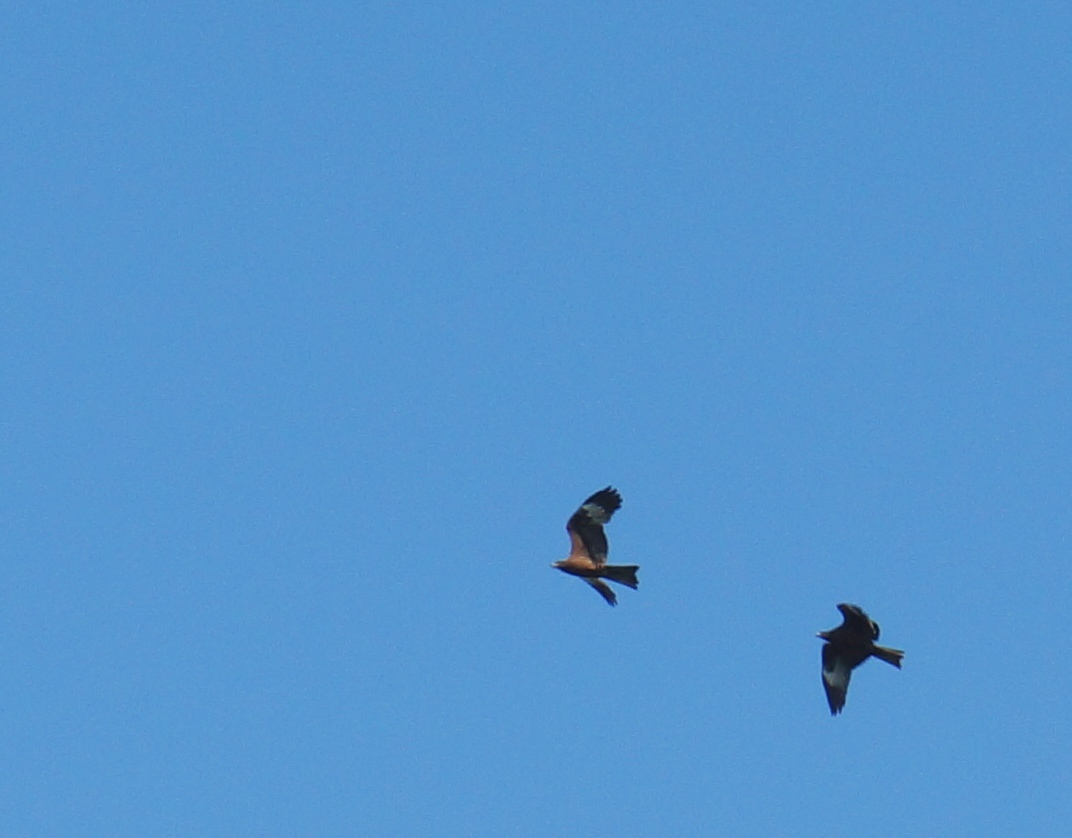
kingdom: Animalia
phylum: Chordata
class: Aves
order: Accipitriformes
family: Accipitridae
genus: Milvus
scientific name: Milvus migrans
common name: Black kite
